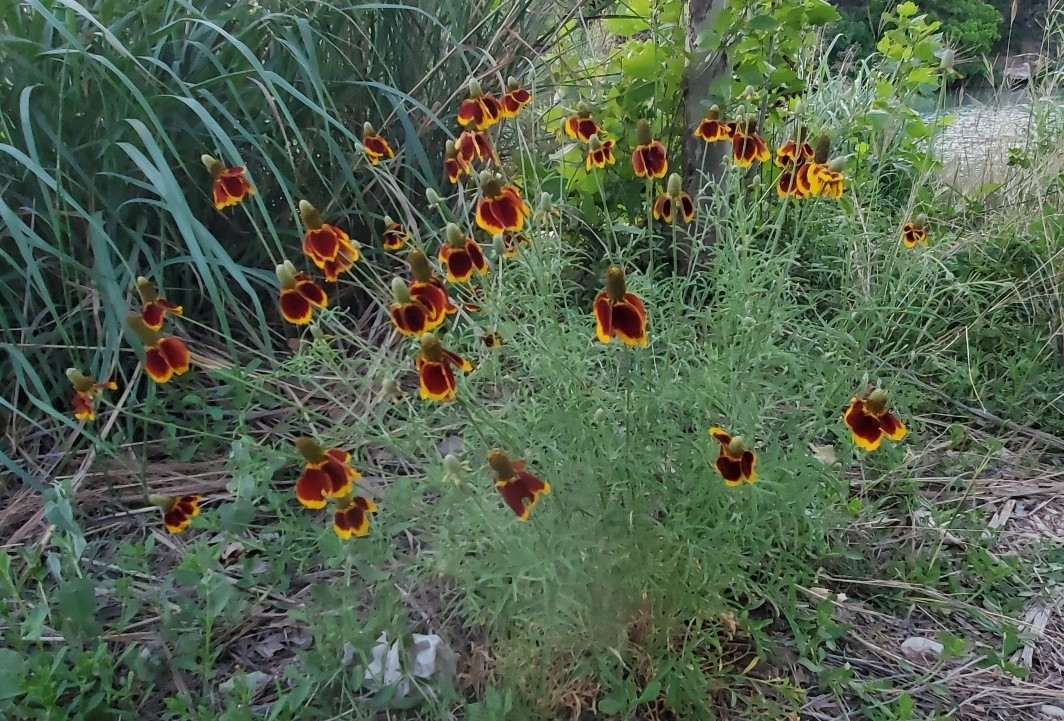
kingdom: Plantae
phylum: Tracheophyta
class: Magnoliopsida
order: Asterales
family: Asteraceae
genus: Ratibida
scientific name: Ratibida columnifera
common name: Prairie coneflower
